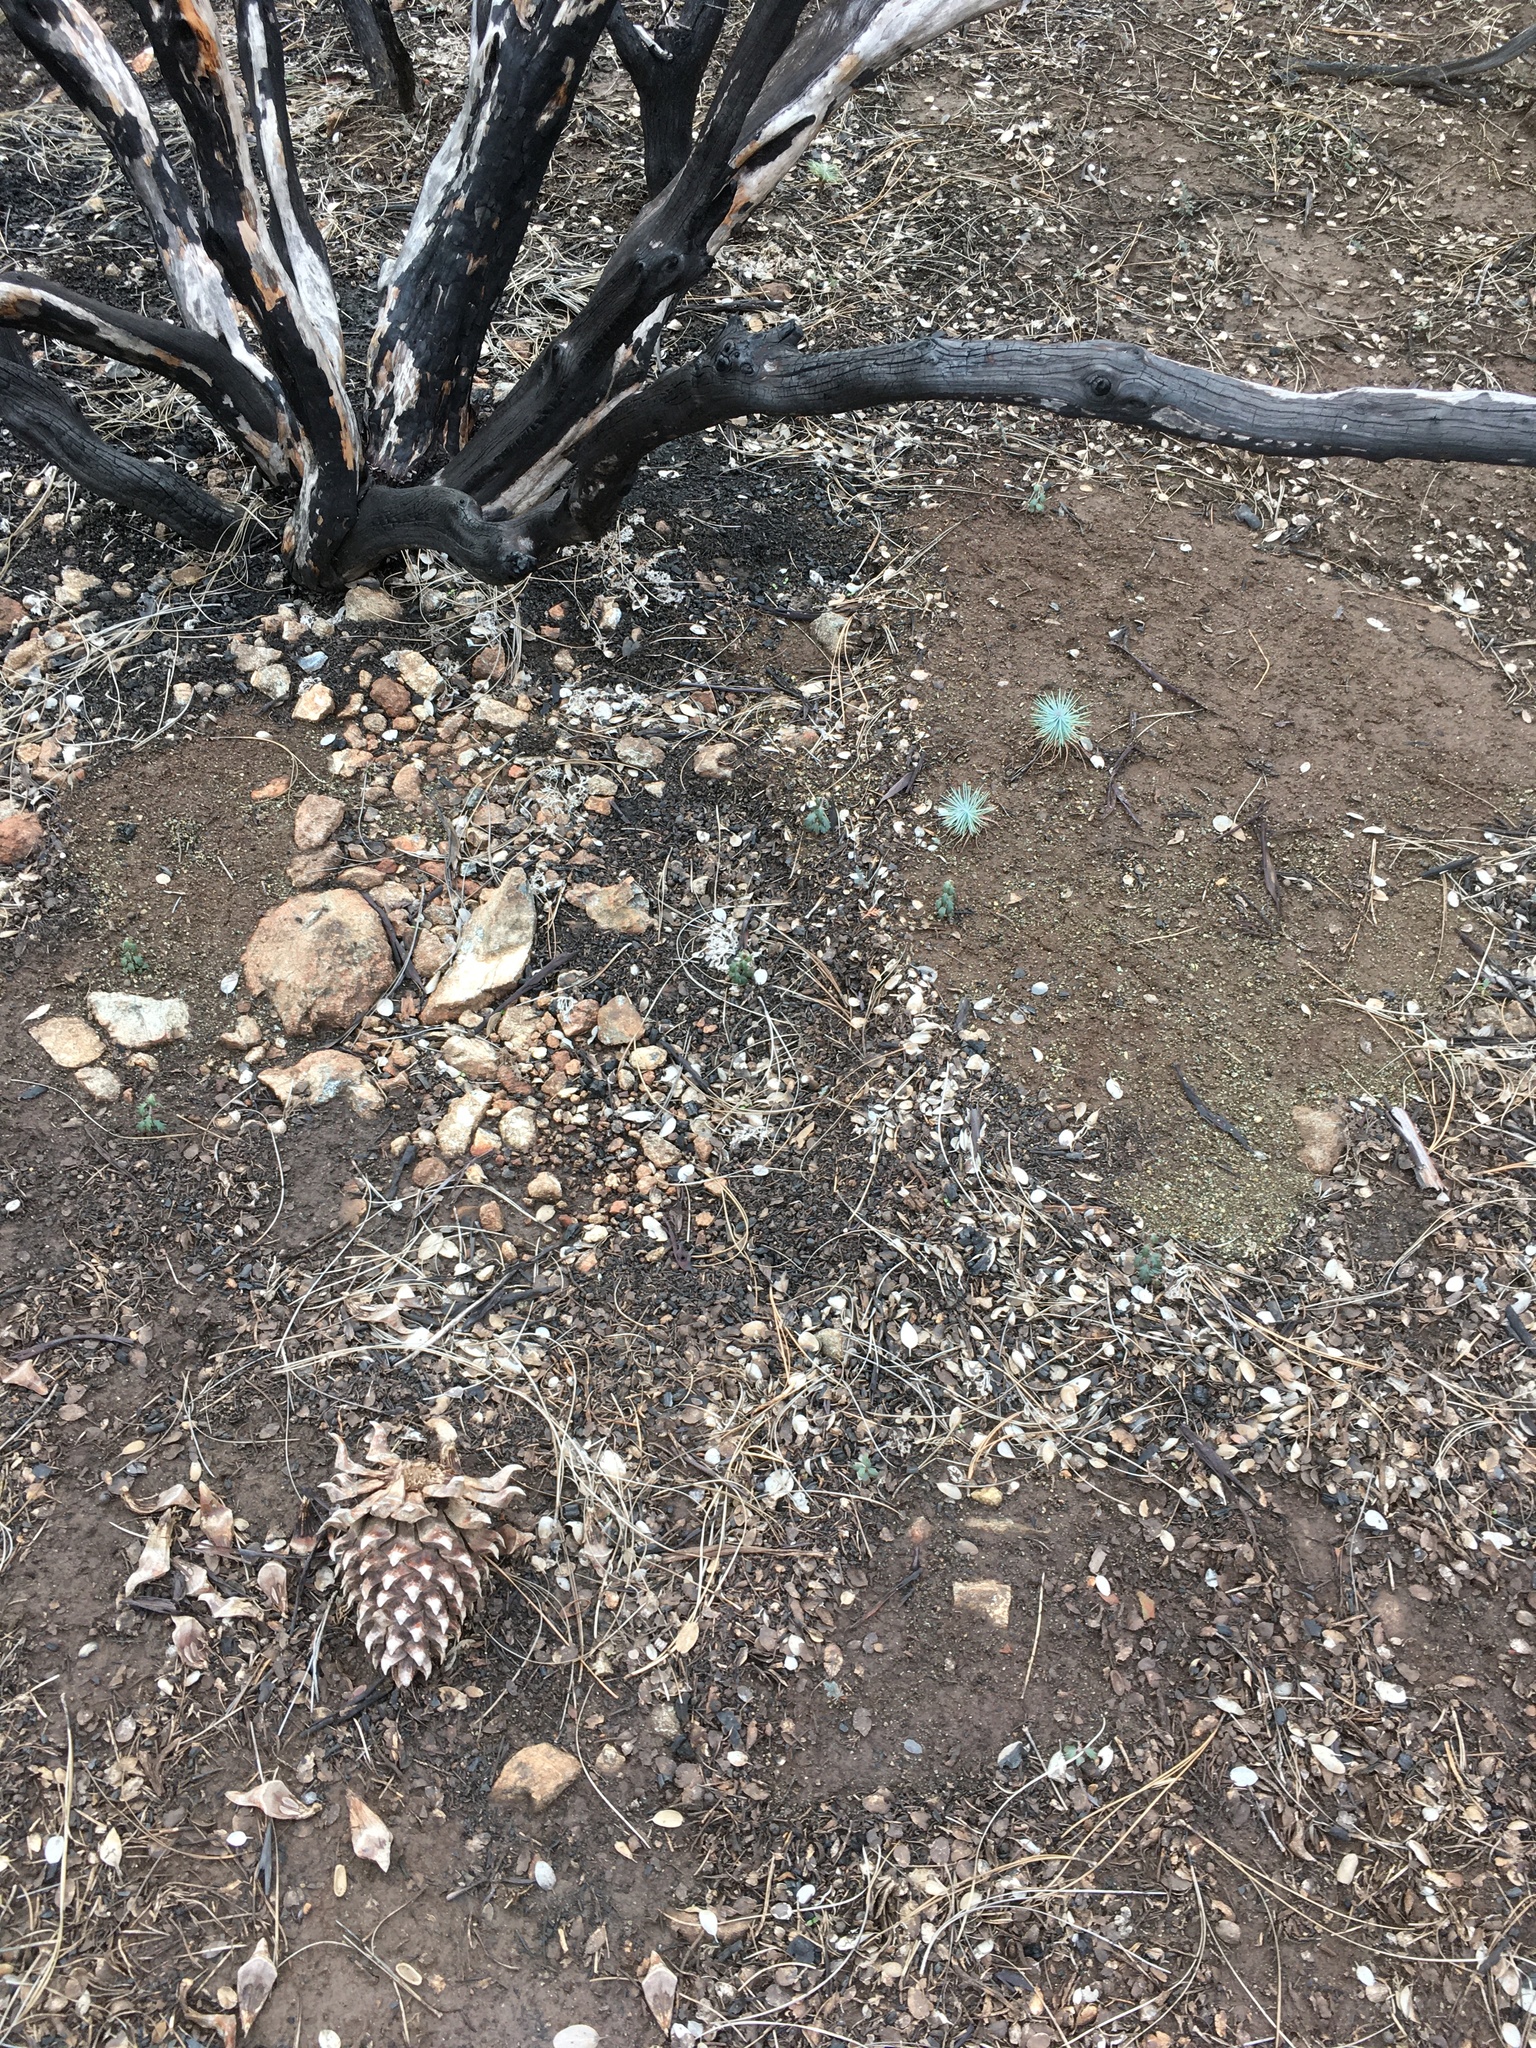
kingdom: Plantae
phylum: Tracheophyta
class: Pinopsida
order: Pinales
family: Pinaceae
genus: Pinus
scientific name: Pinus sabiniana
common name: Bull pine
